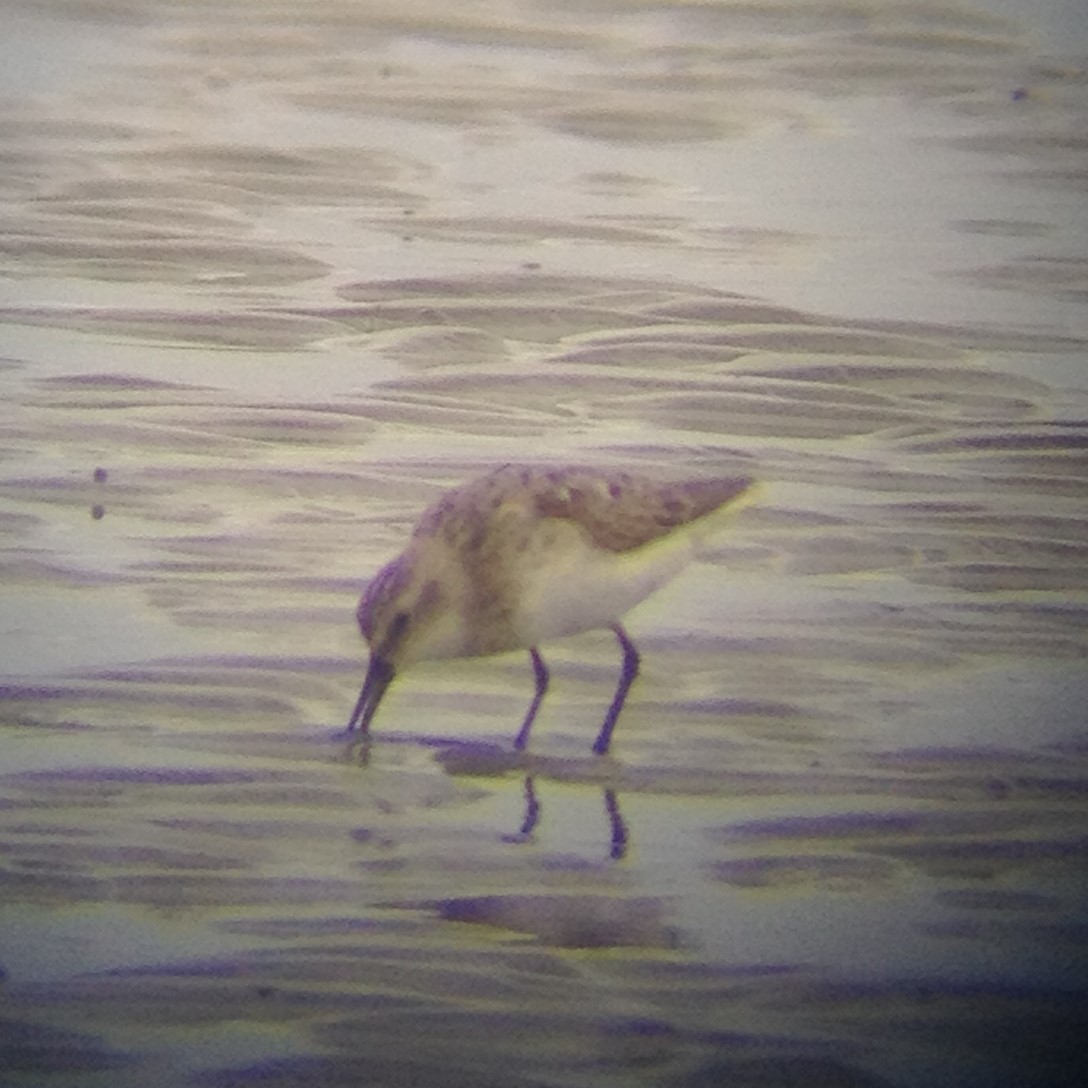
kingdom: Animalia
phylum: Chordata
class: Aves
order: Charadriiformes
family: Scolopacidae
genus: Calidris
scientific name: Calidris pusilla
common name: Semipalmated sandpiper
